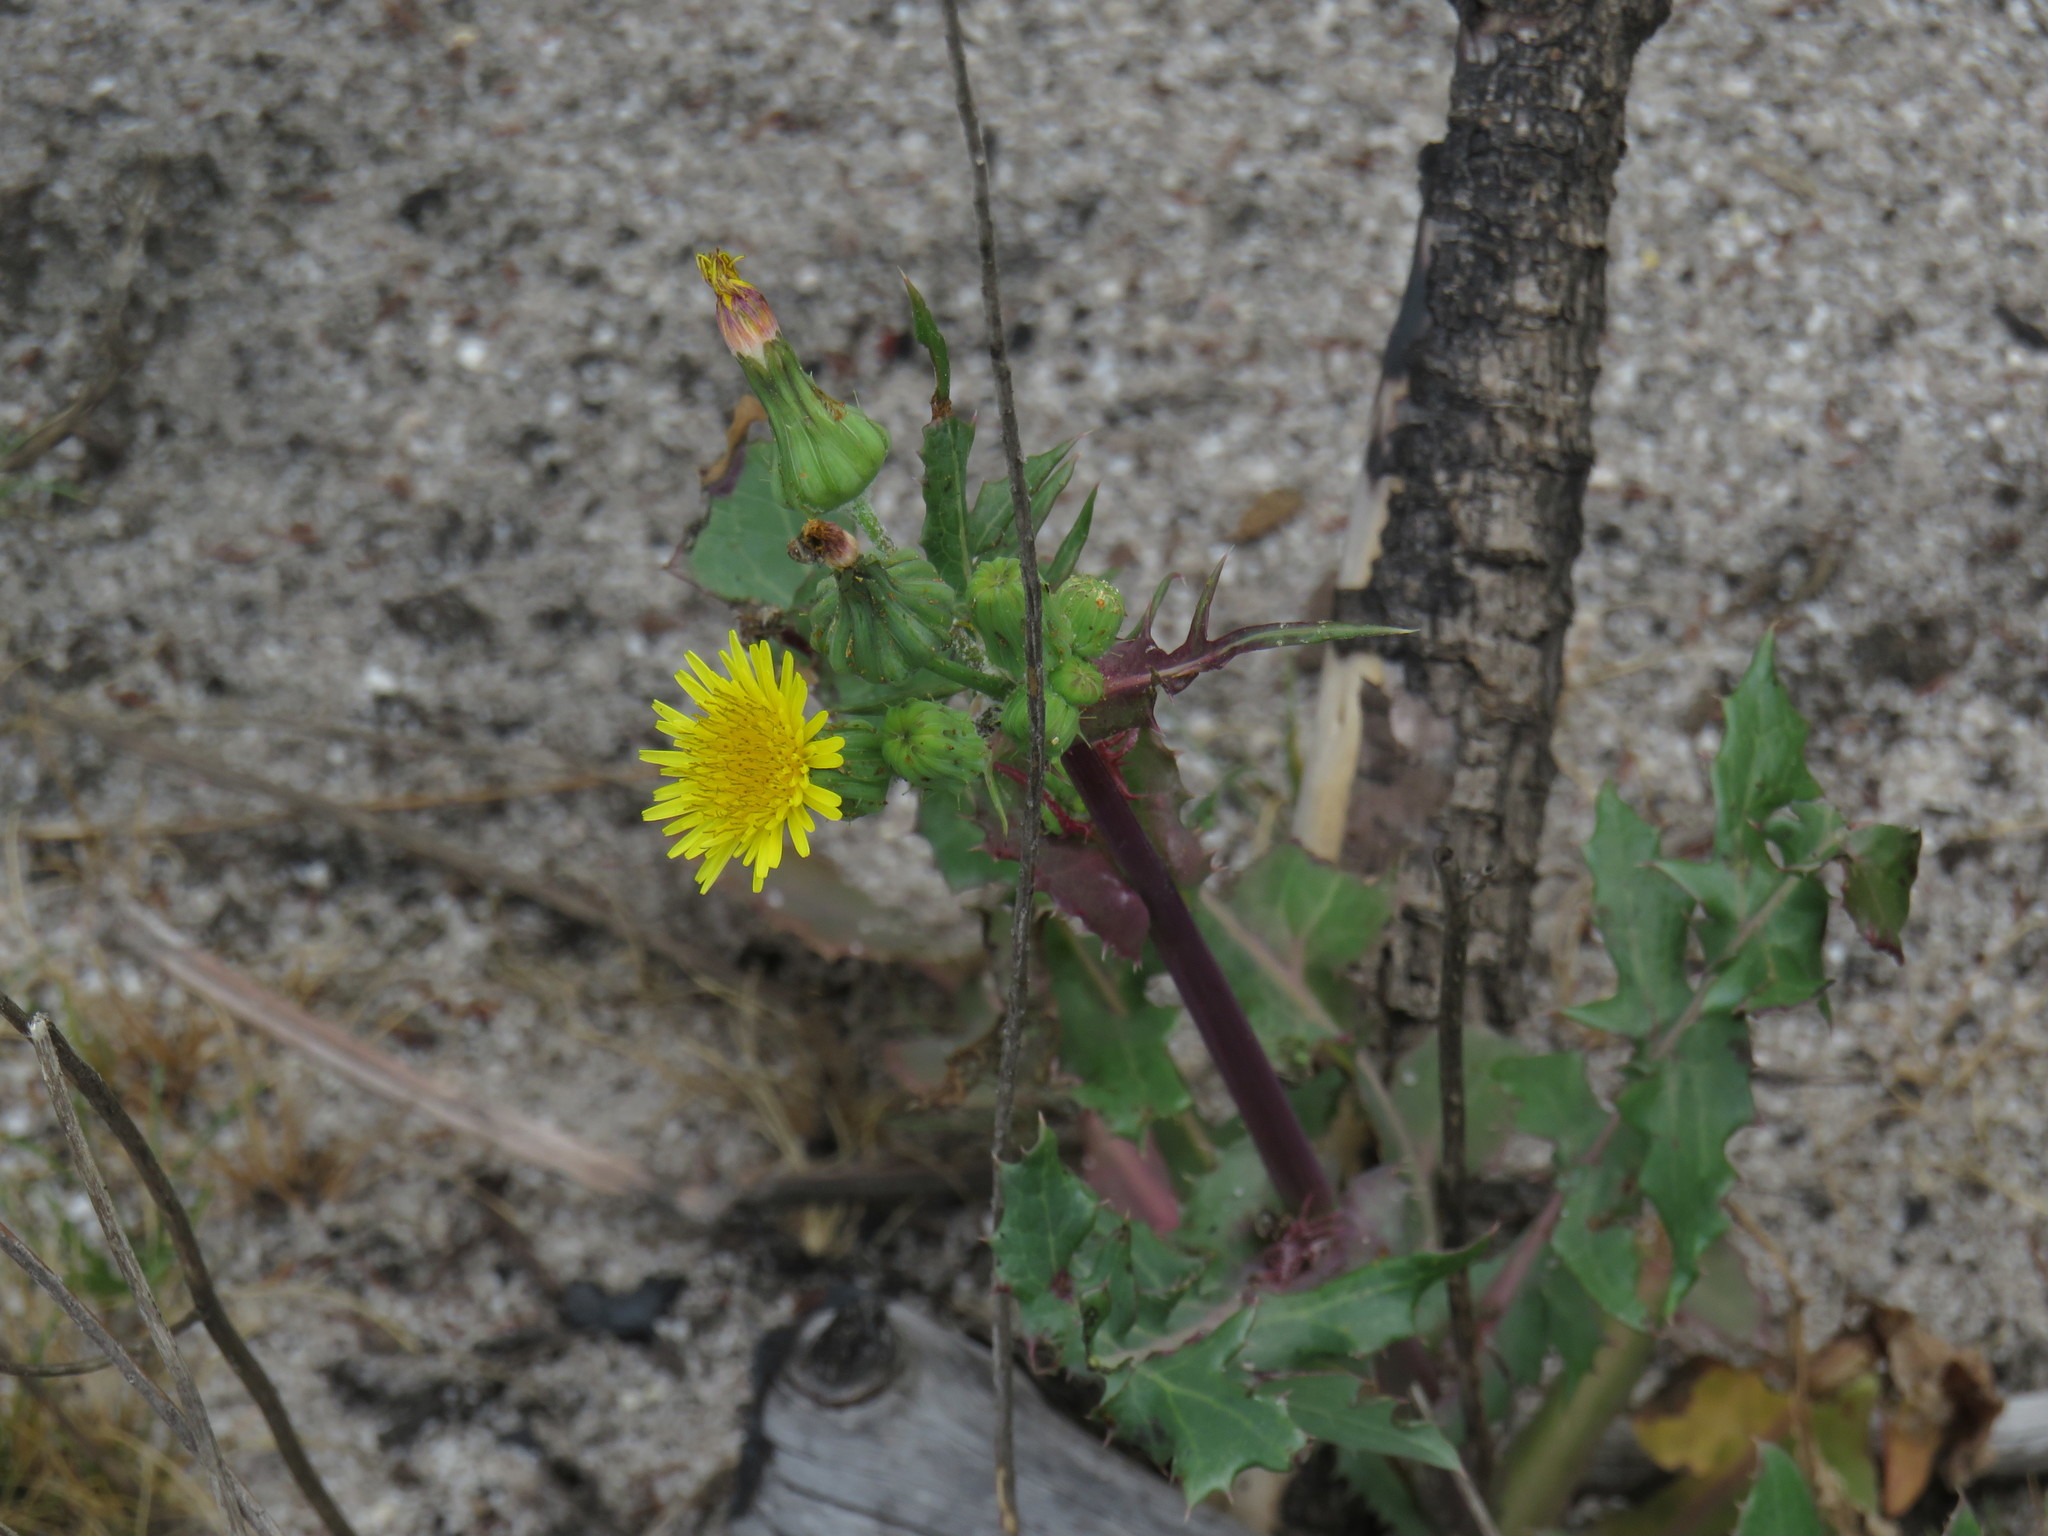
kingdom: Plantae
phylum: Tracheophyta
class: Magnoliopsida
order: Asterales
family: Asteraceae
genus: Sonchus
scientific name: Sonchus oleraceus
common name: Common sowthistle
